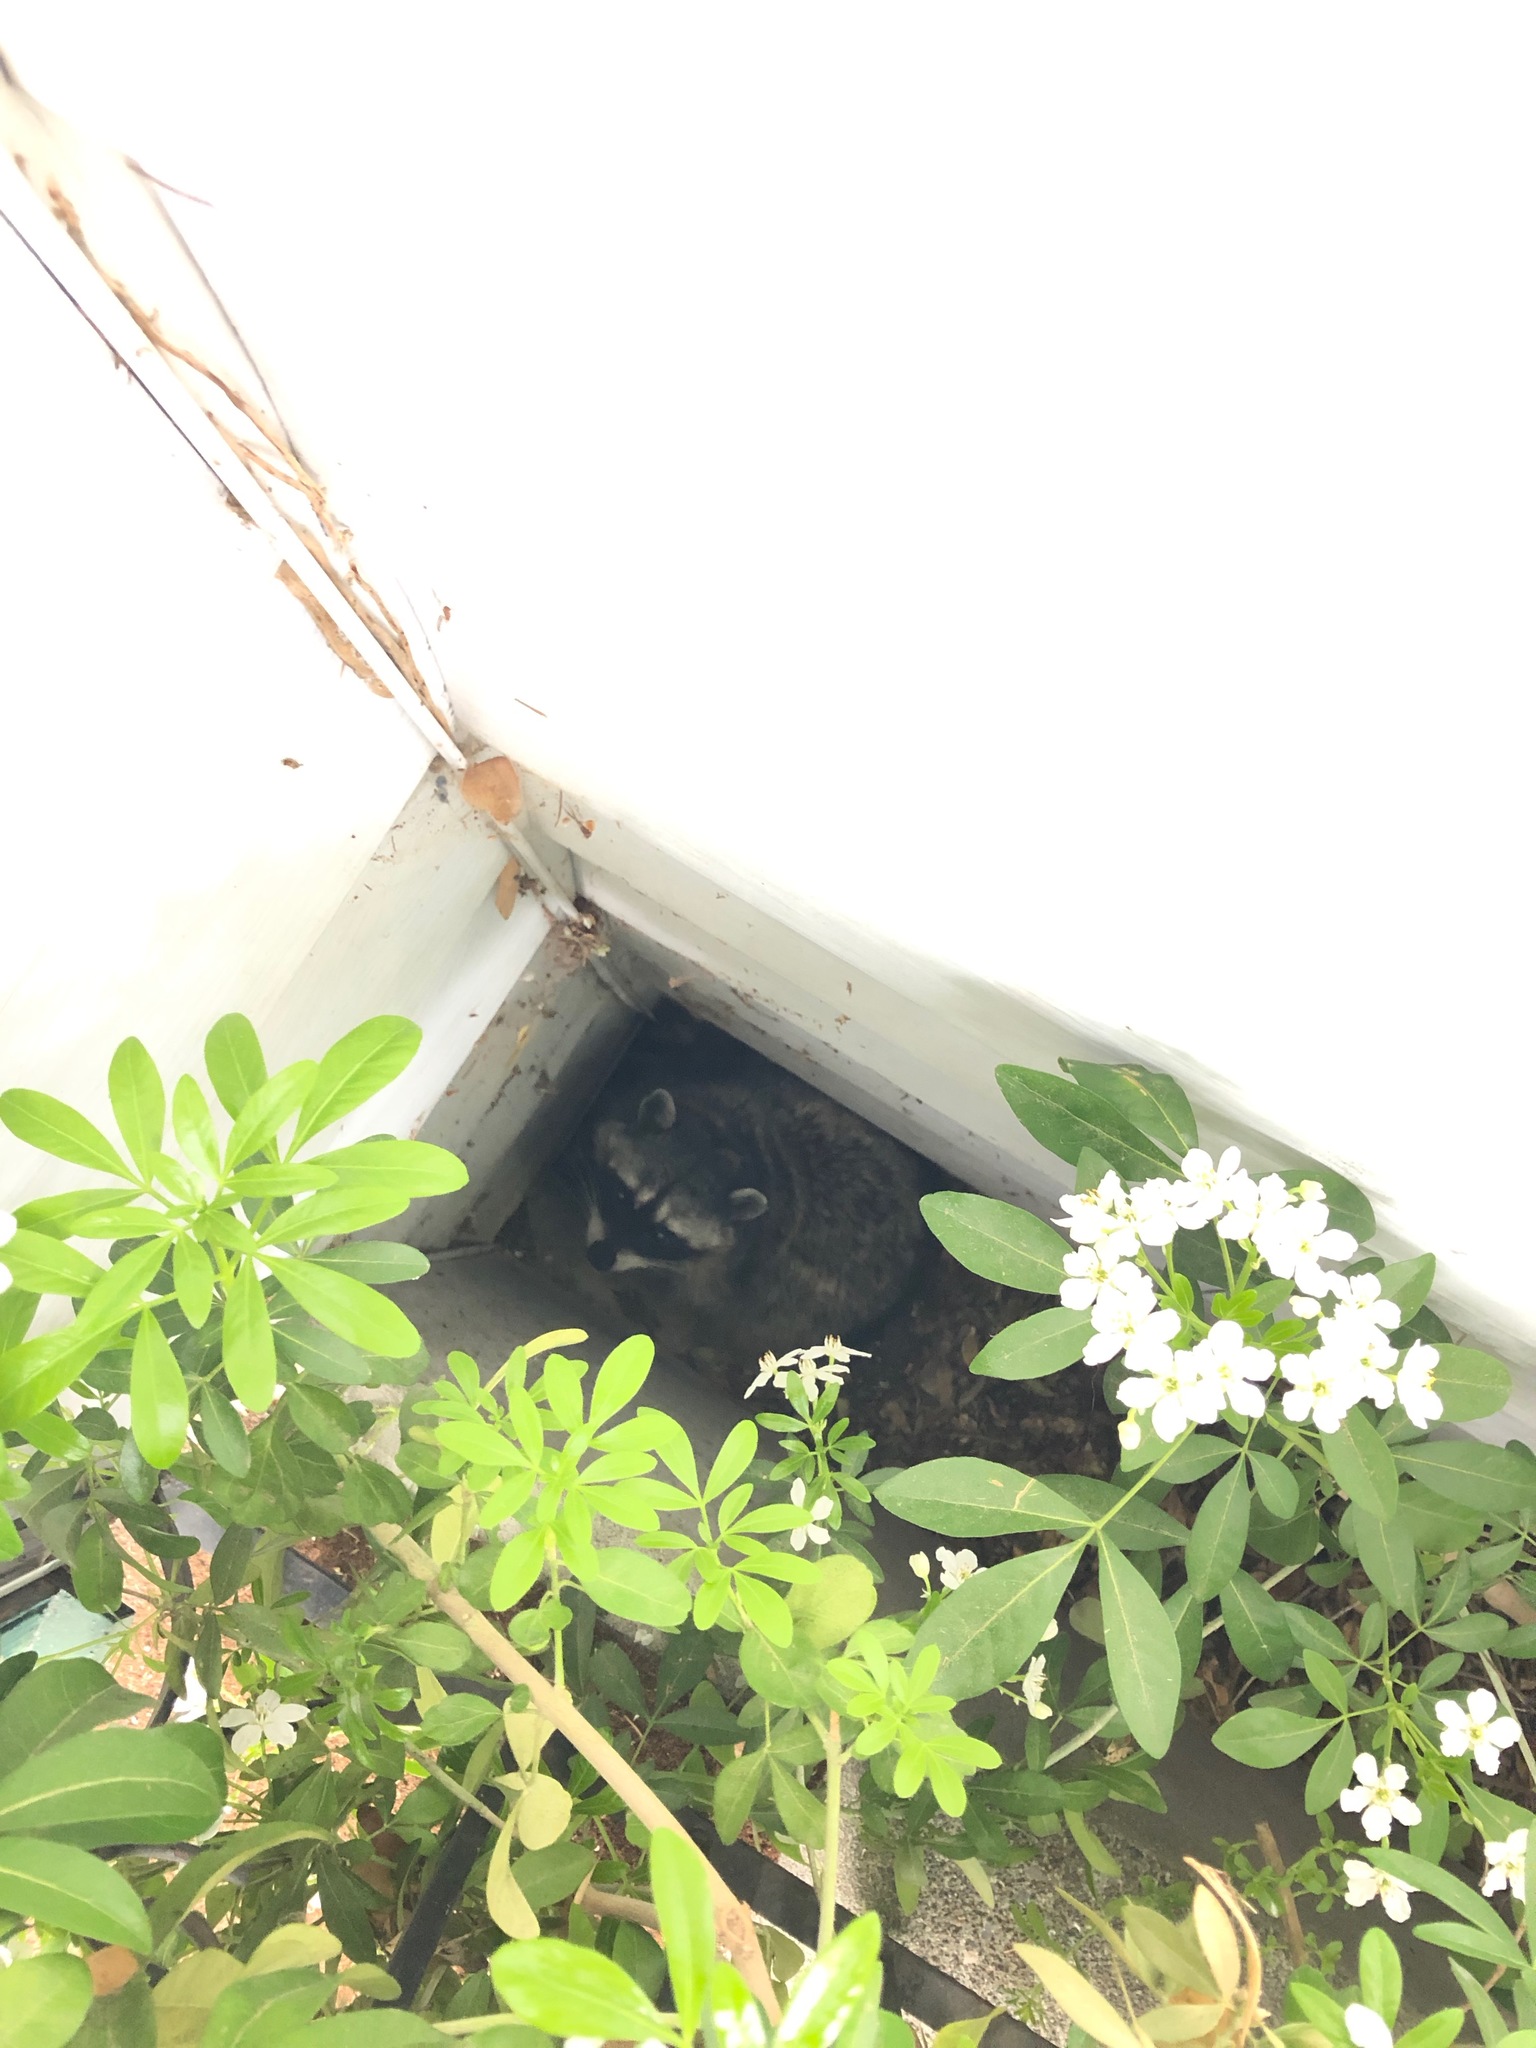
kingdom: Animalia
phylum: Chordata
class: Mammalia
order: Carnivora
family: Procyonidae
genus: Procyon
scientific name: Procyon lotor
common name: Raccoon
